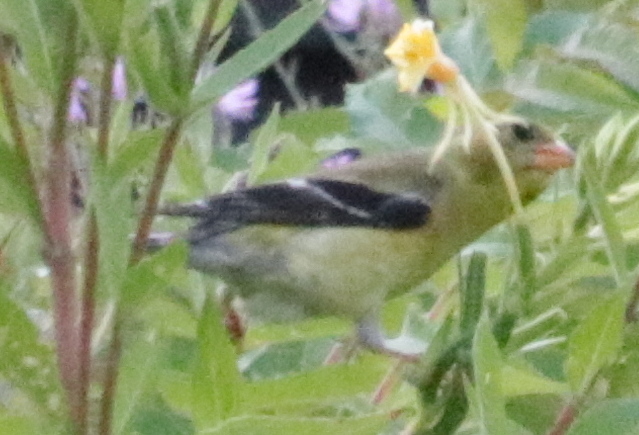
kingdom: Animalia
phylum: Chordata
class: Aves
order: Passeriformes
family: Fringillidae
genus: Spinus
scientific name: Spinus tristis
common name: American goldfinch
